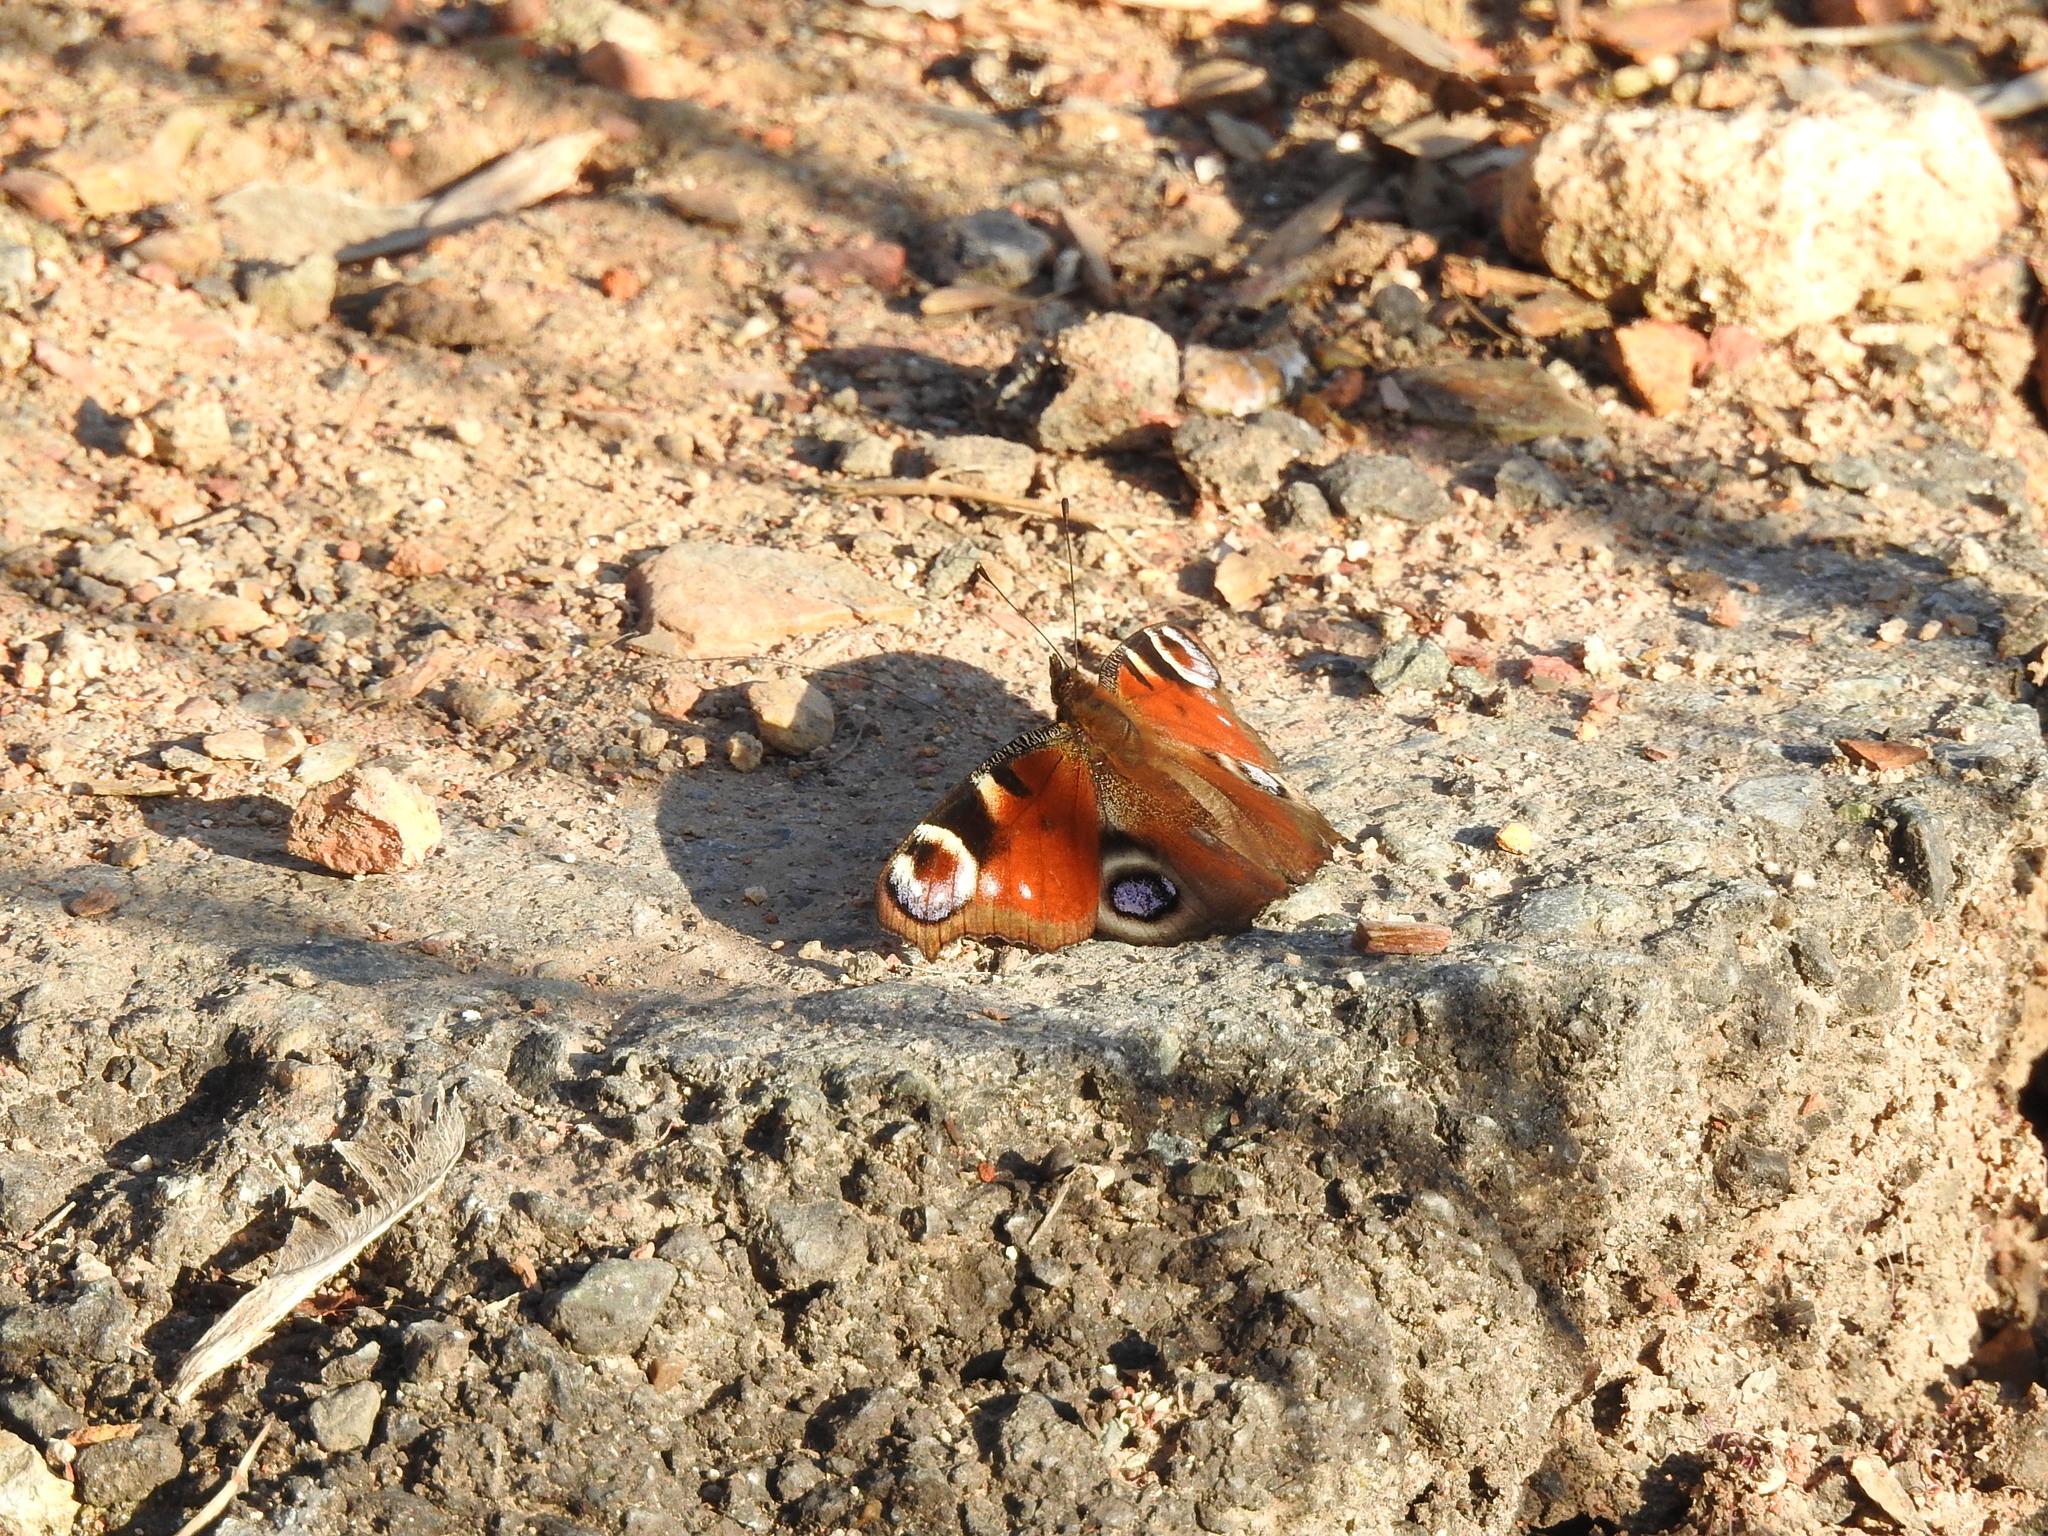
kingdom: Animalia
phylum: Arthropoda
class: Insecta
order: Lepidoptera
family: Nymphalidae
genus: Aglais
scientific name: Aglais io
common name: Peacock
